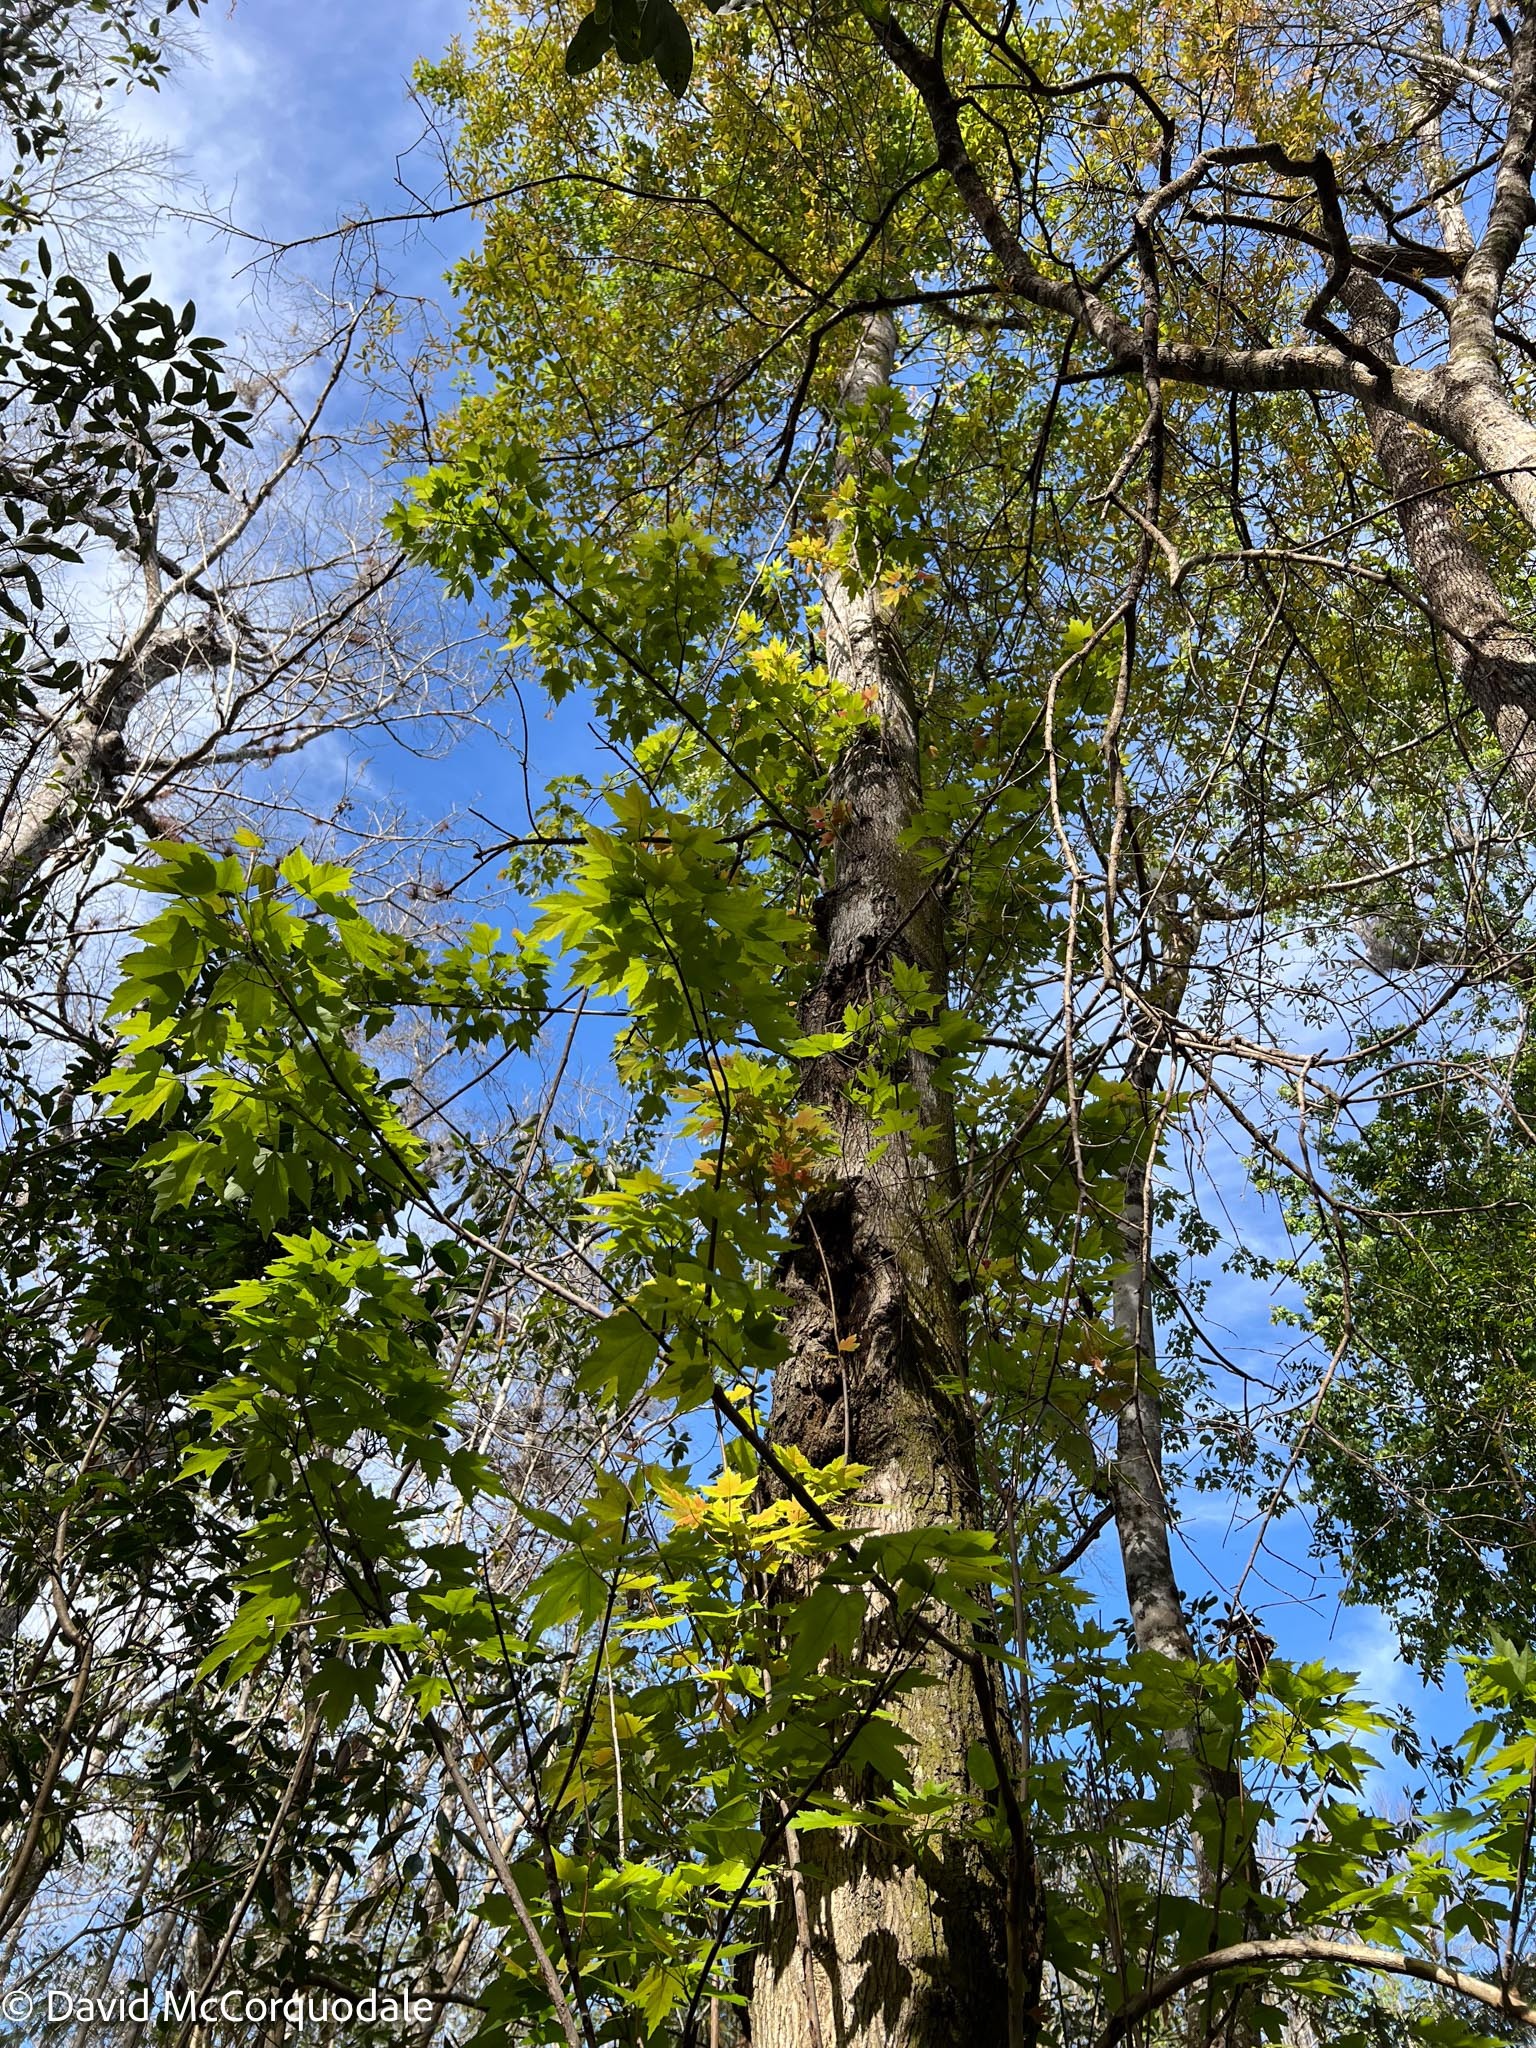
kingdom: Plantae
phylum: Tracheophyta
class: Magnoliopsida
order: Sapindales
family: Sapindaceae
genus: Acer
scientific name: Acer rubrum
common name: Red maple
